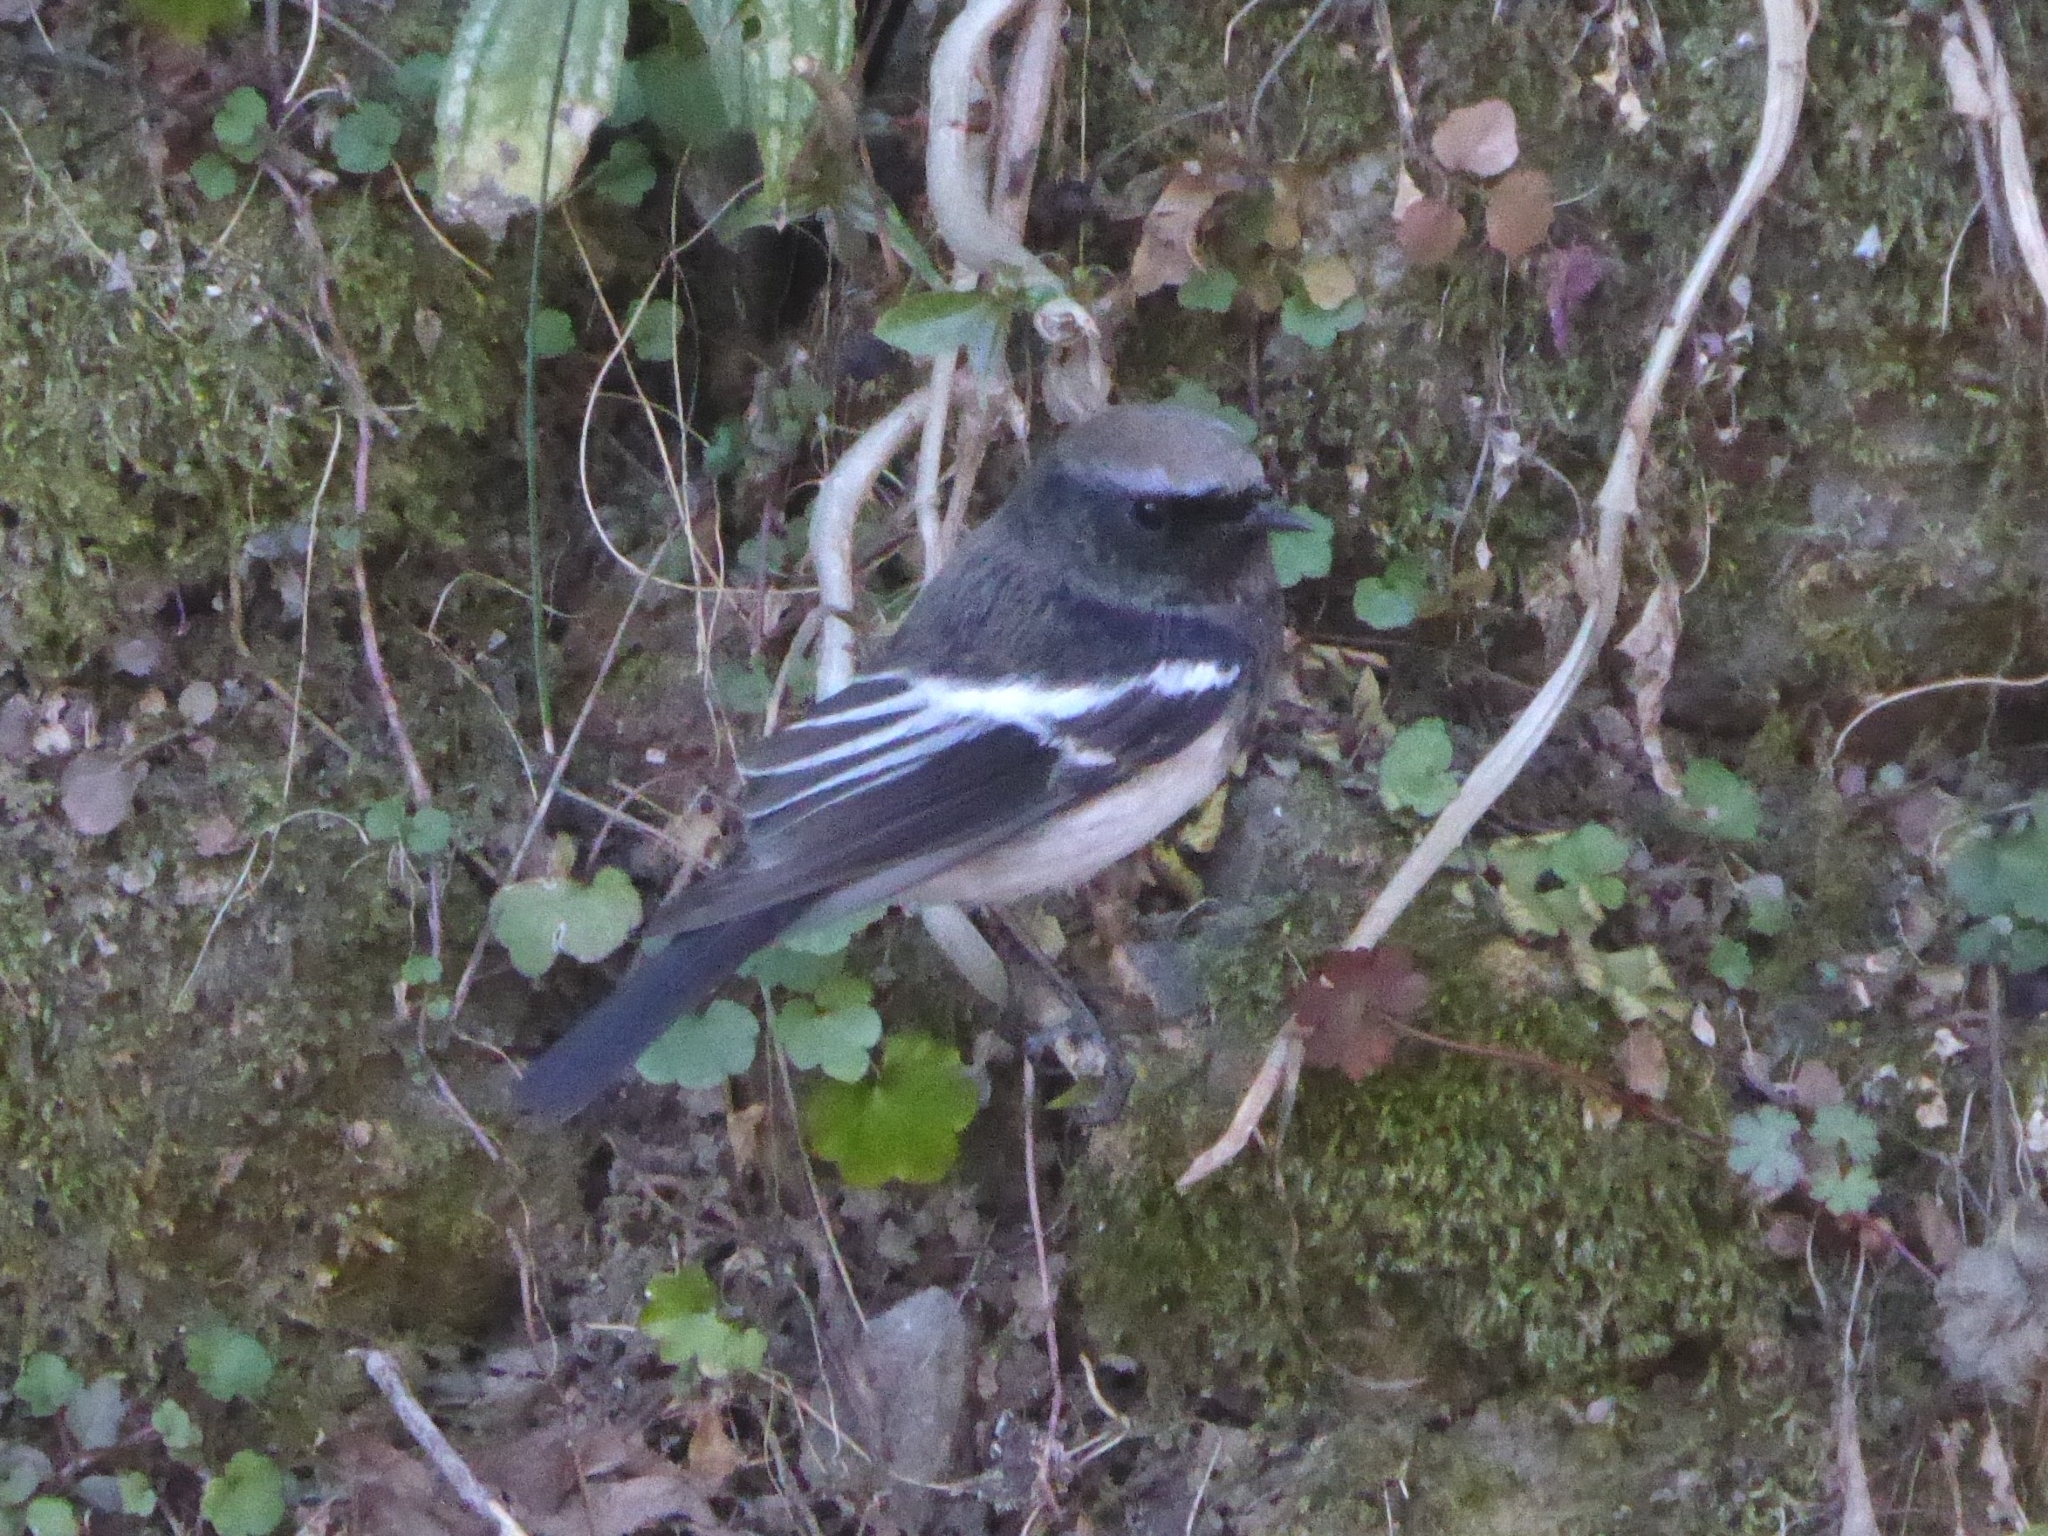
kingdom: Animalia
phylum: Chordata
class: Aves
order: Passeriformes
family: Muscicapidae
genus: Phoenicurus
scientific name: Phoenicurus coeruleocephala
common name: Blue-capped redstart
